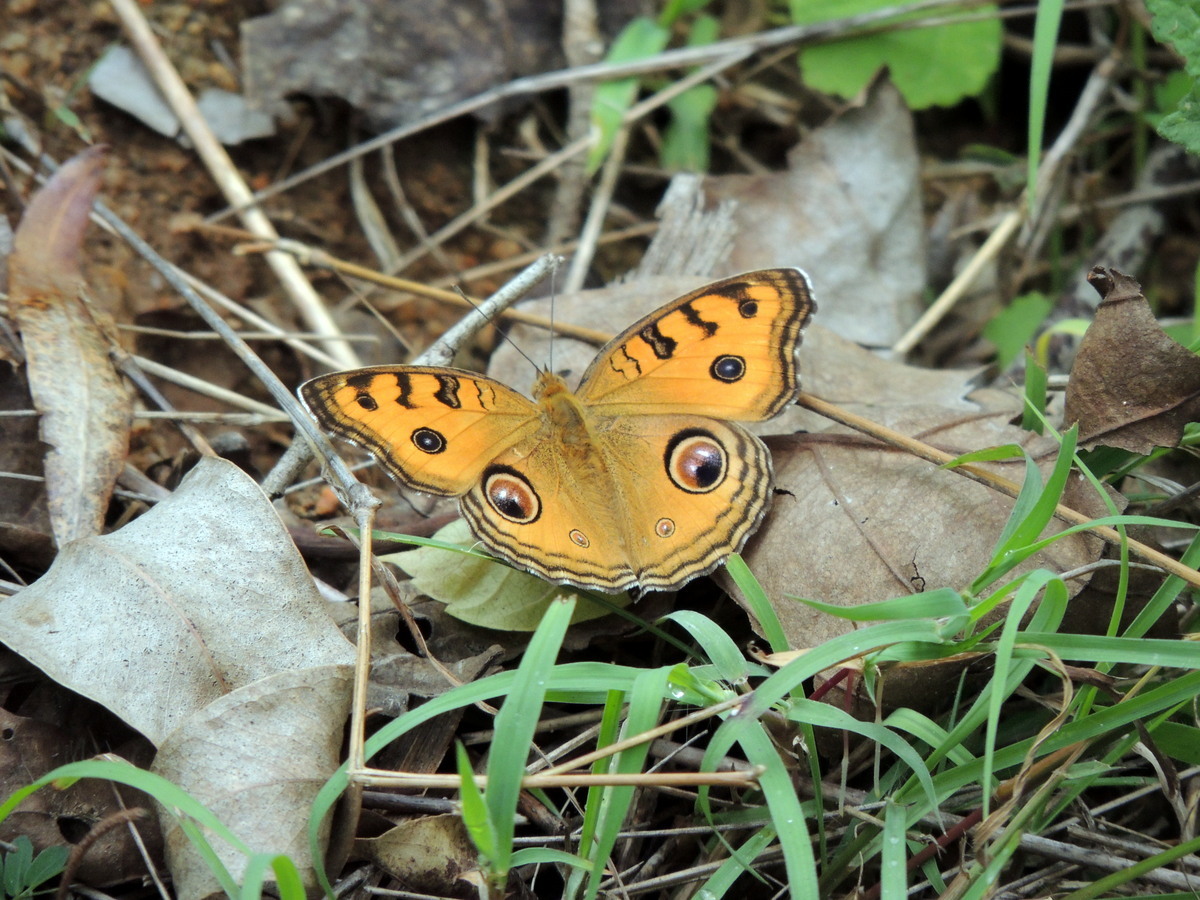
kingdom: Animalia
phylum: Arthropoda
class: Insecta
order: Lepidoptera
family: Nymphalidae
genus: Junonia
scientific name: Junonia almana
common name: Peacock pansy
